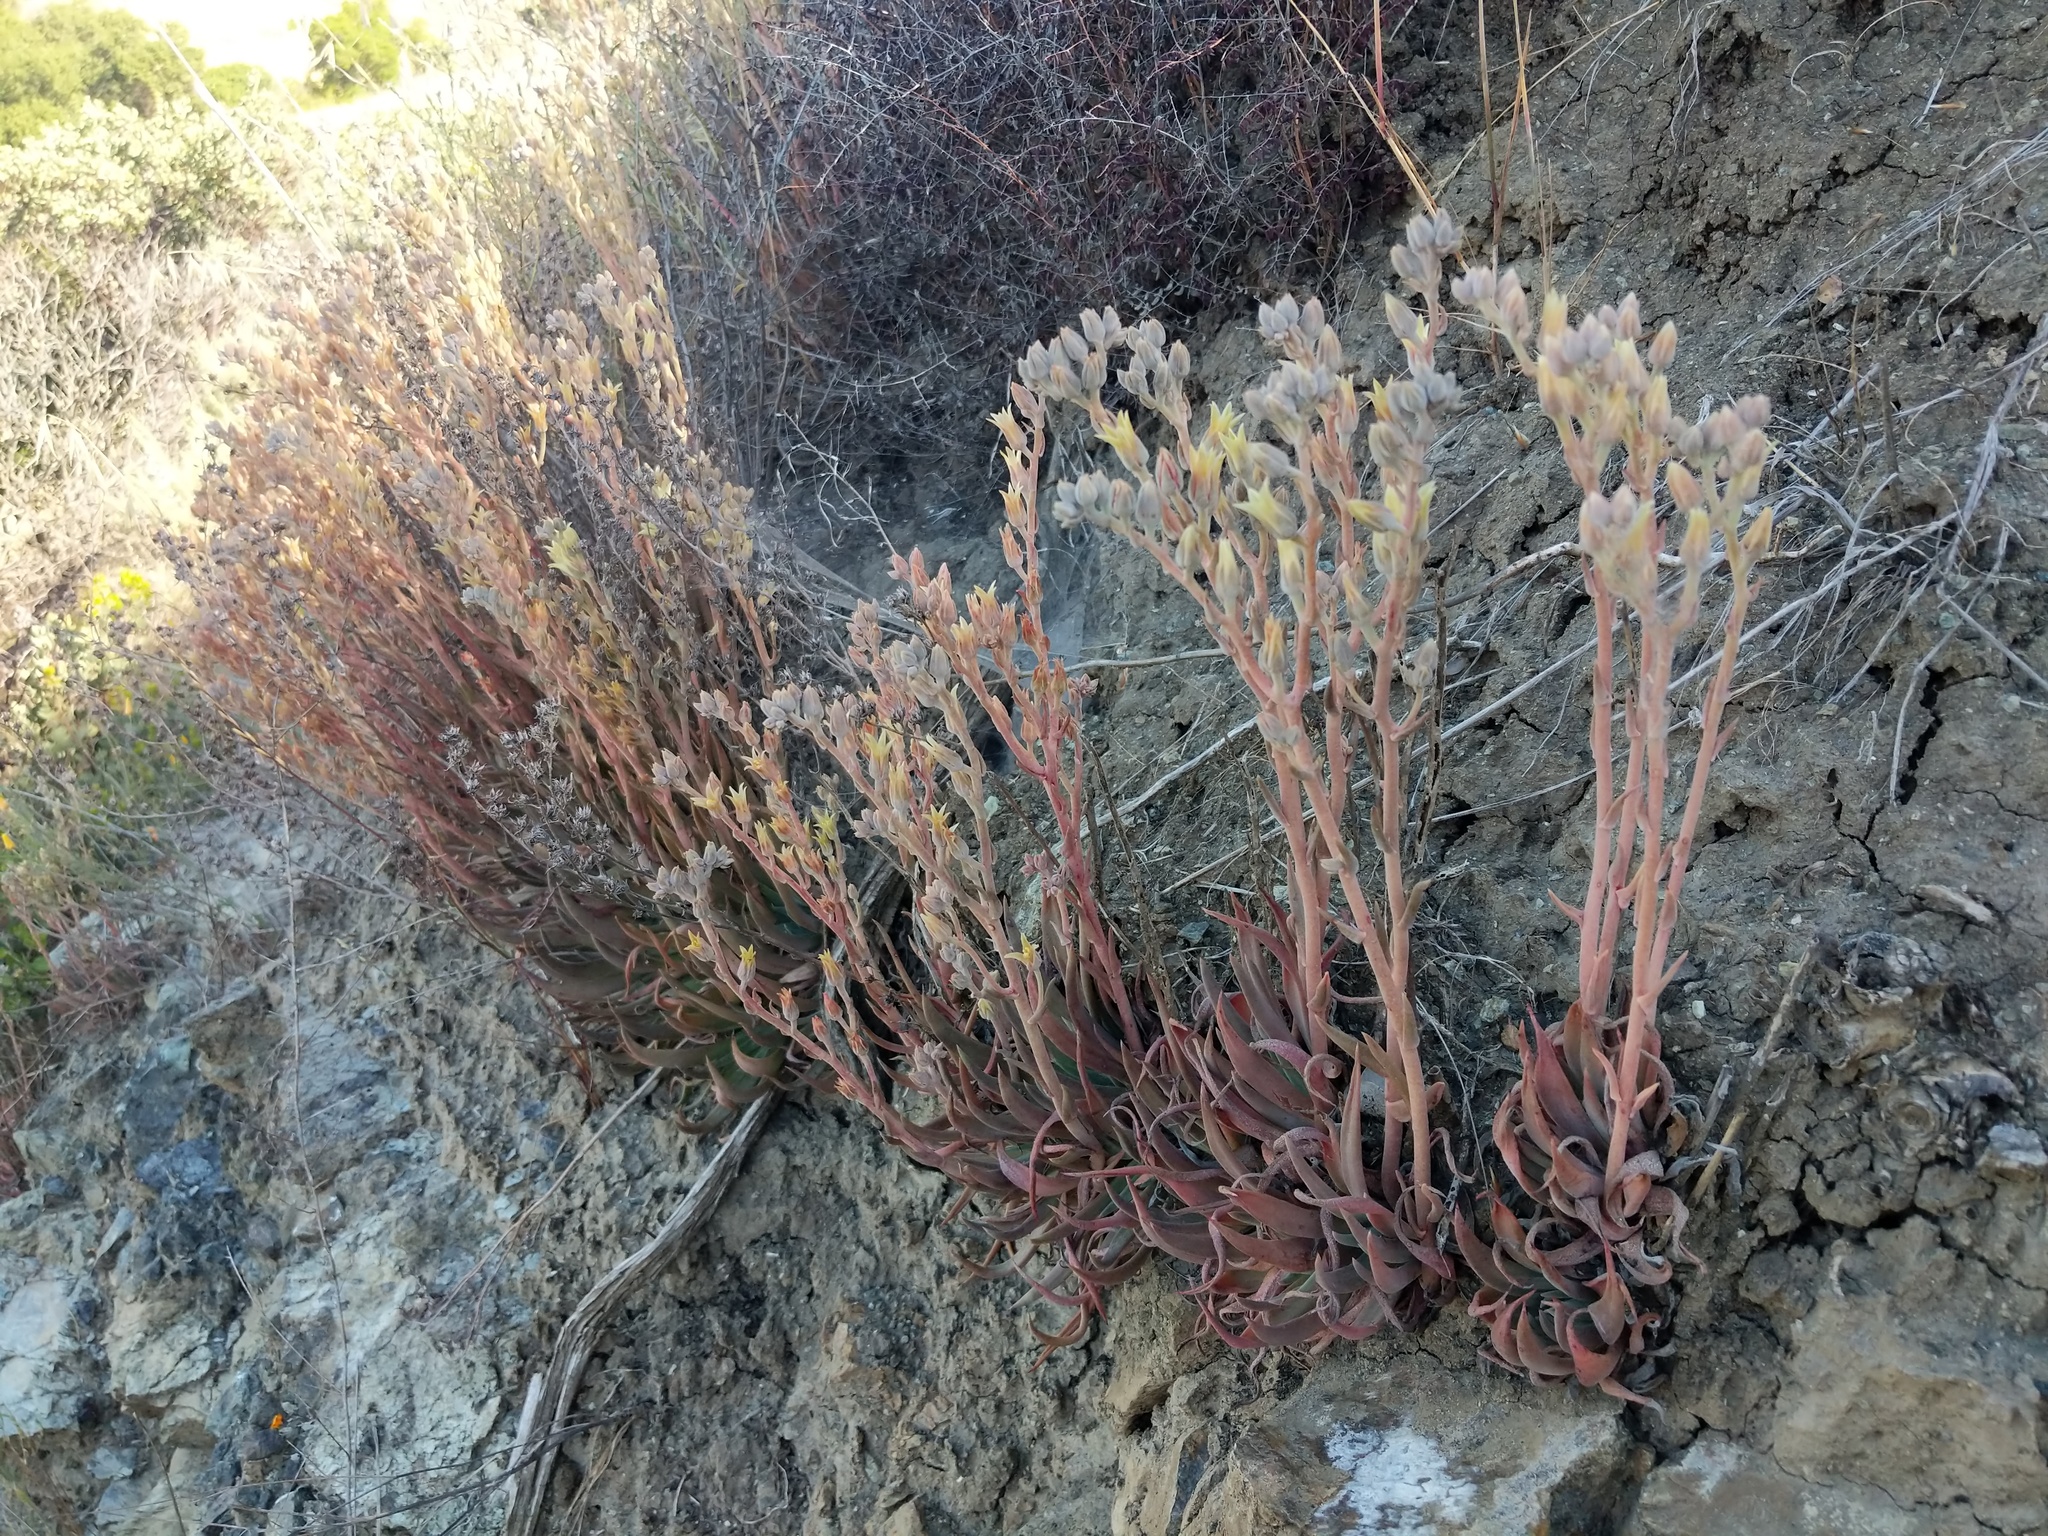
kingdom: Plantae
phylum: Tracheophyta
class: Magnoliopsida
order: Saxifragales
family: Crassulaceae
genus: Dudleya
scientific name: Dudleya abramsii
